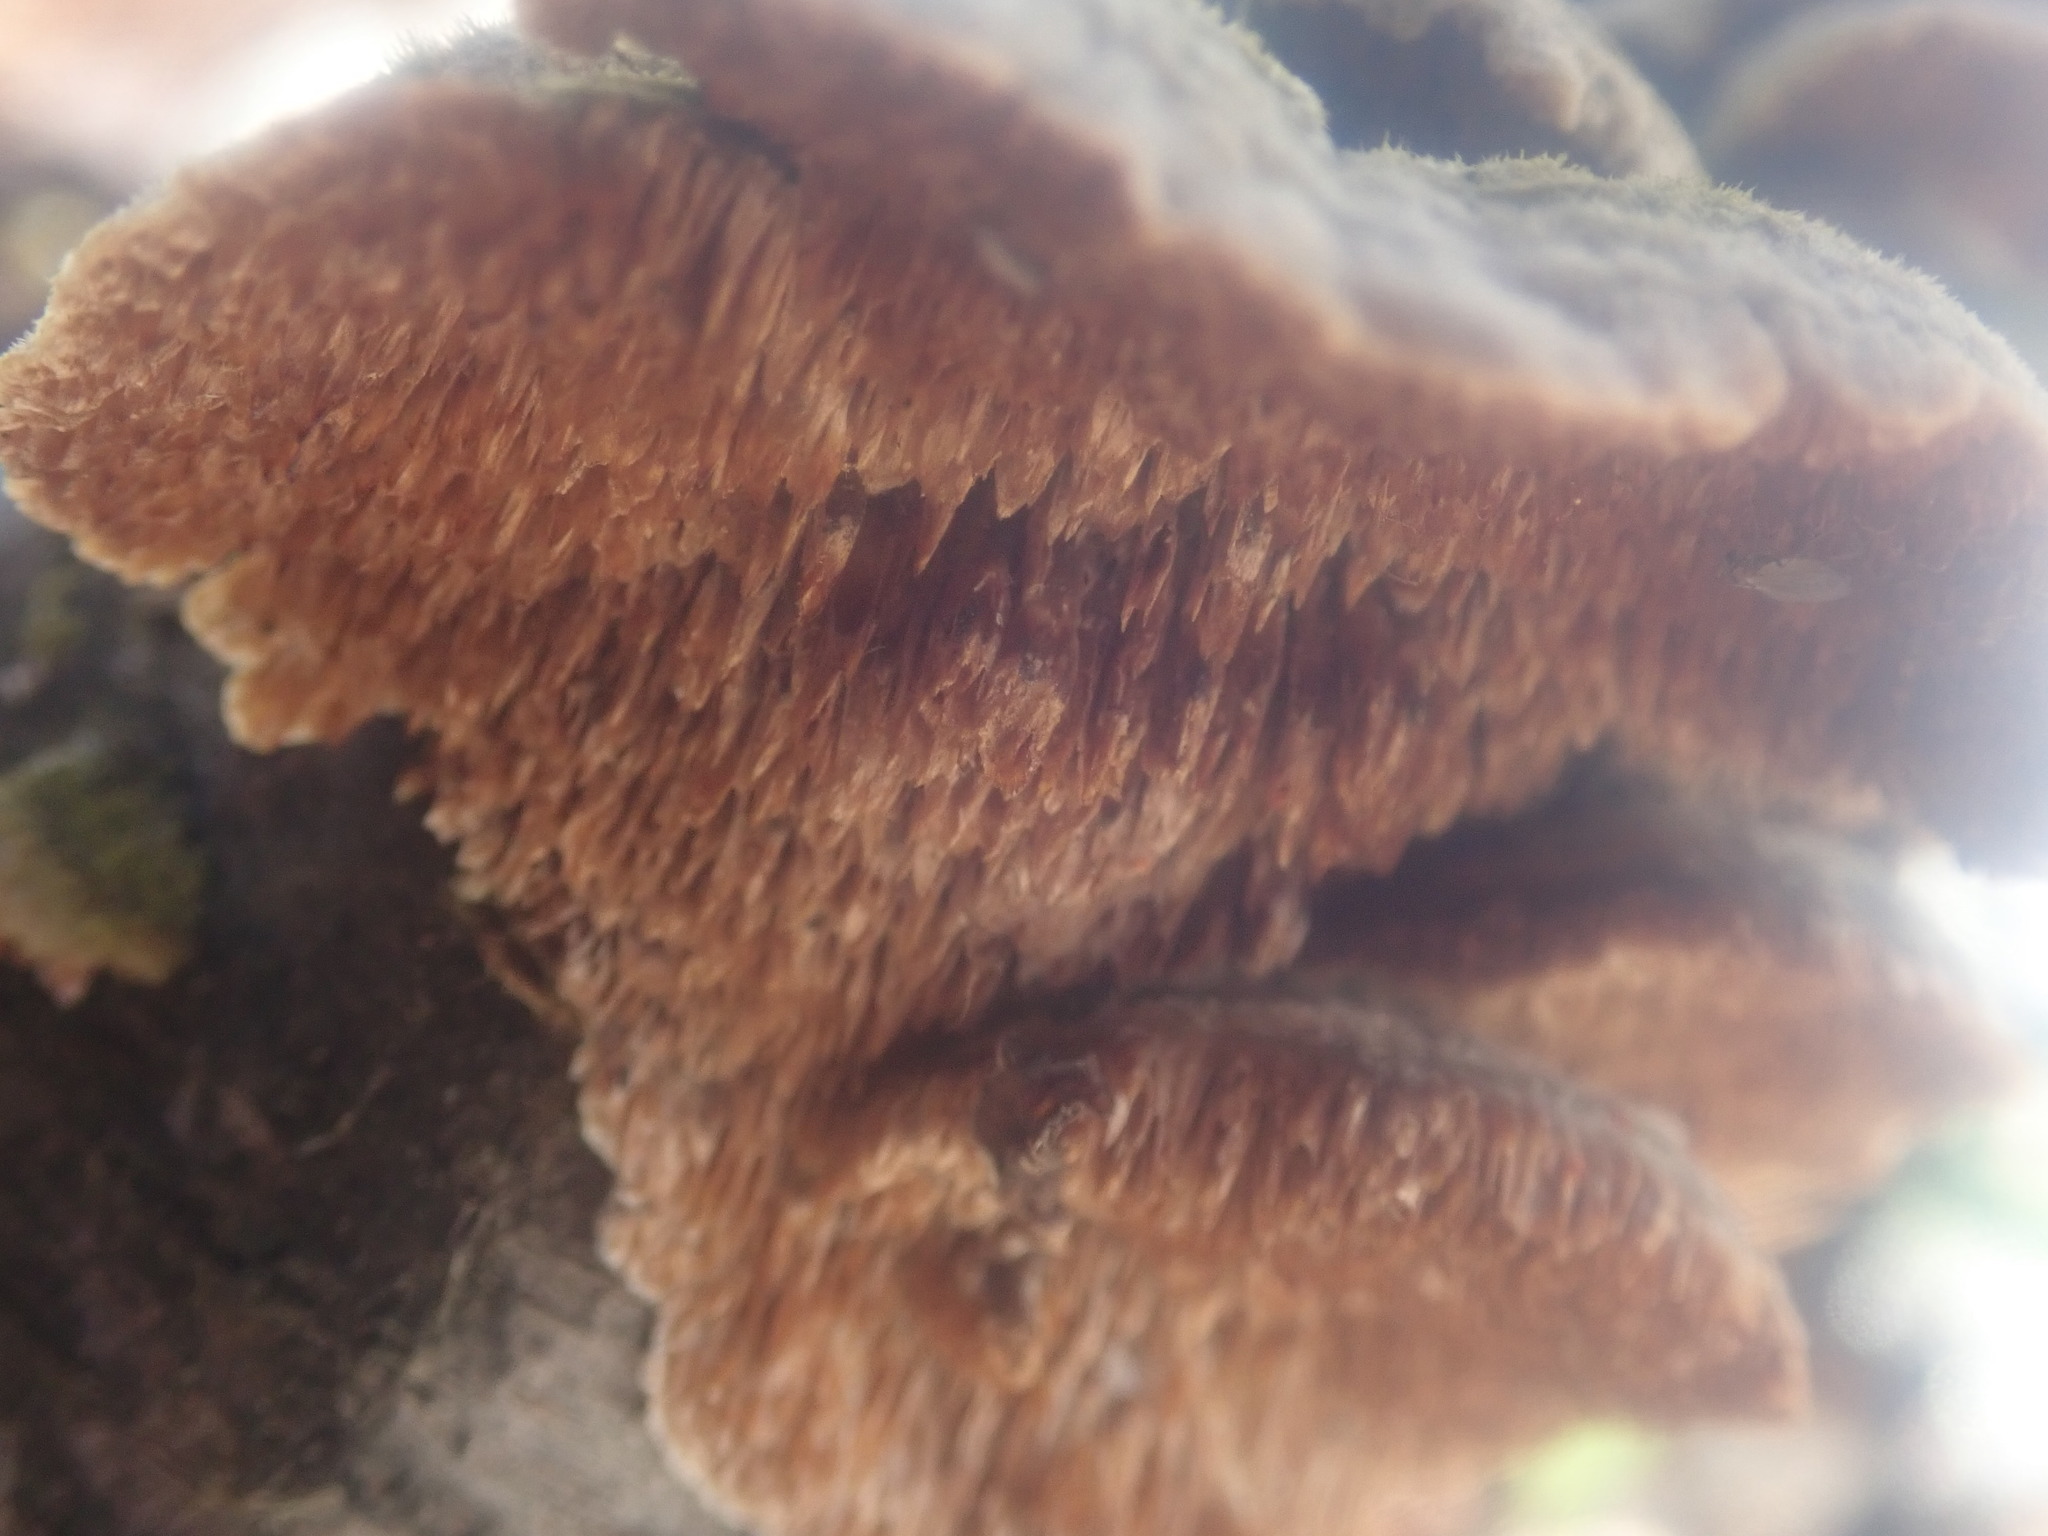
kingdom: Fungi
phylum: Basidiomycota
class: Agaricomycetes
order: Hymenochaetales
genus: Trichaptum
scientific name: Trichaptum biforme
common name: Violet-toothed polypore
